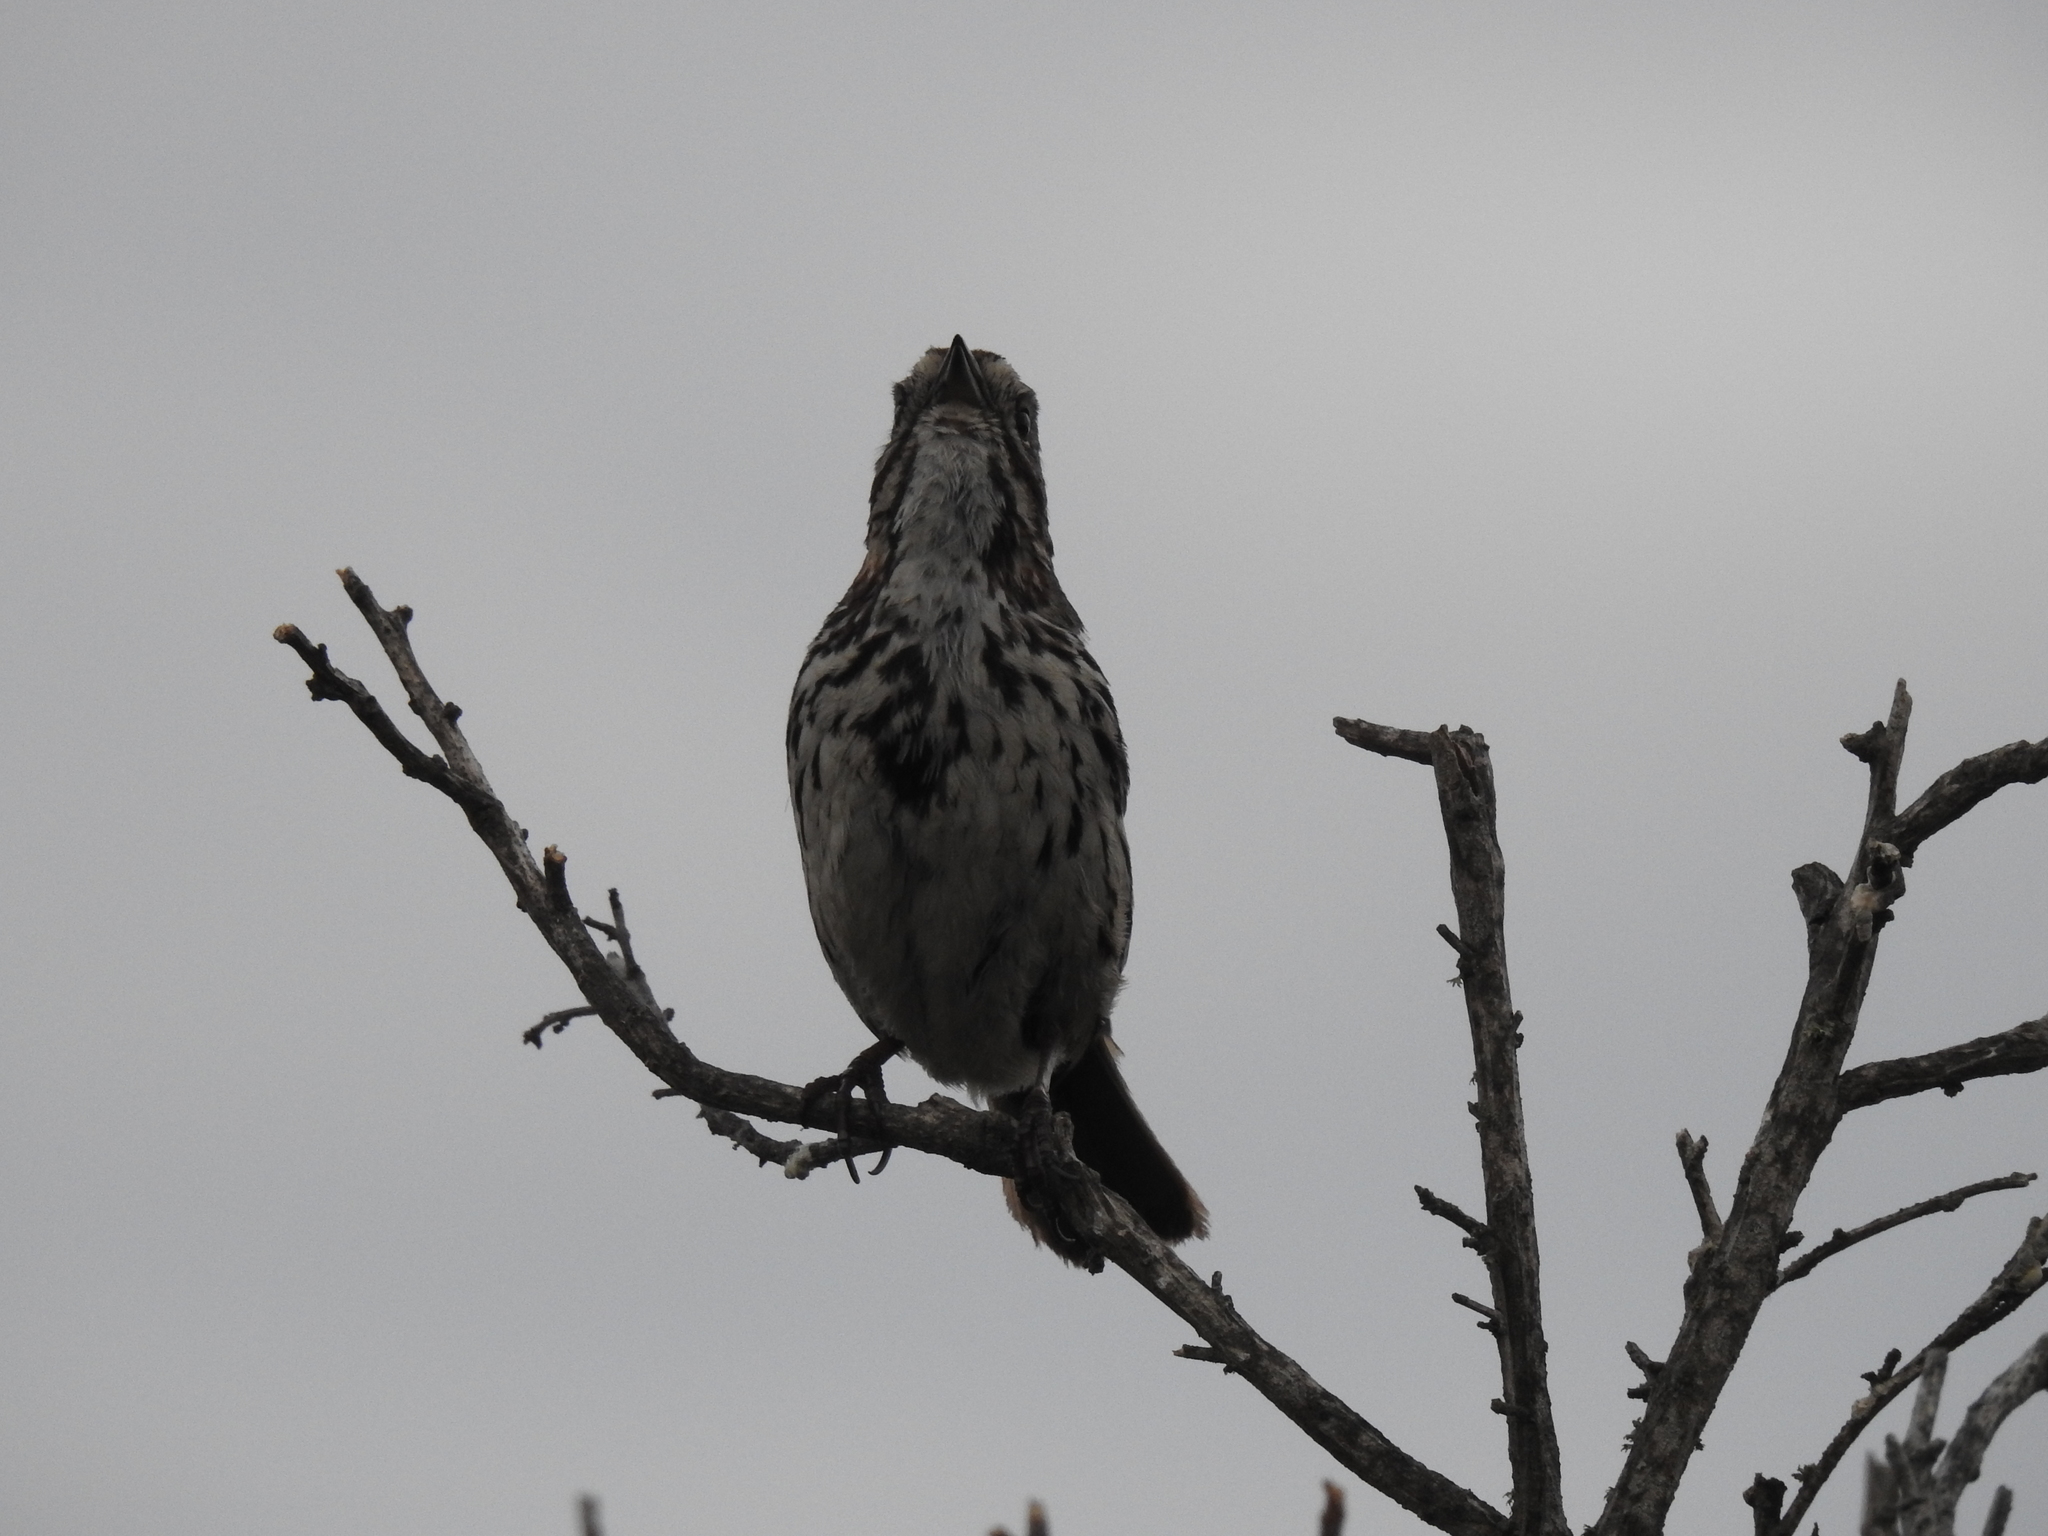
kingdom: Animalia
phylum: Chordata
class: Aves
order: Passeriformes
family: Passerellidae
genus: Melospiza
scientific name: Melospiza melodia
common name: Song sparrow
